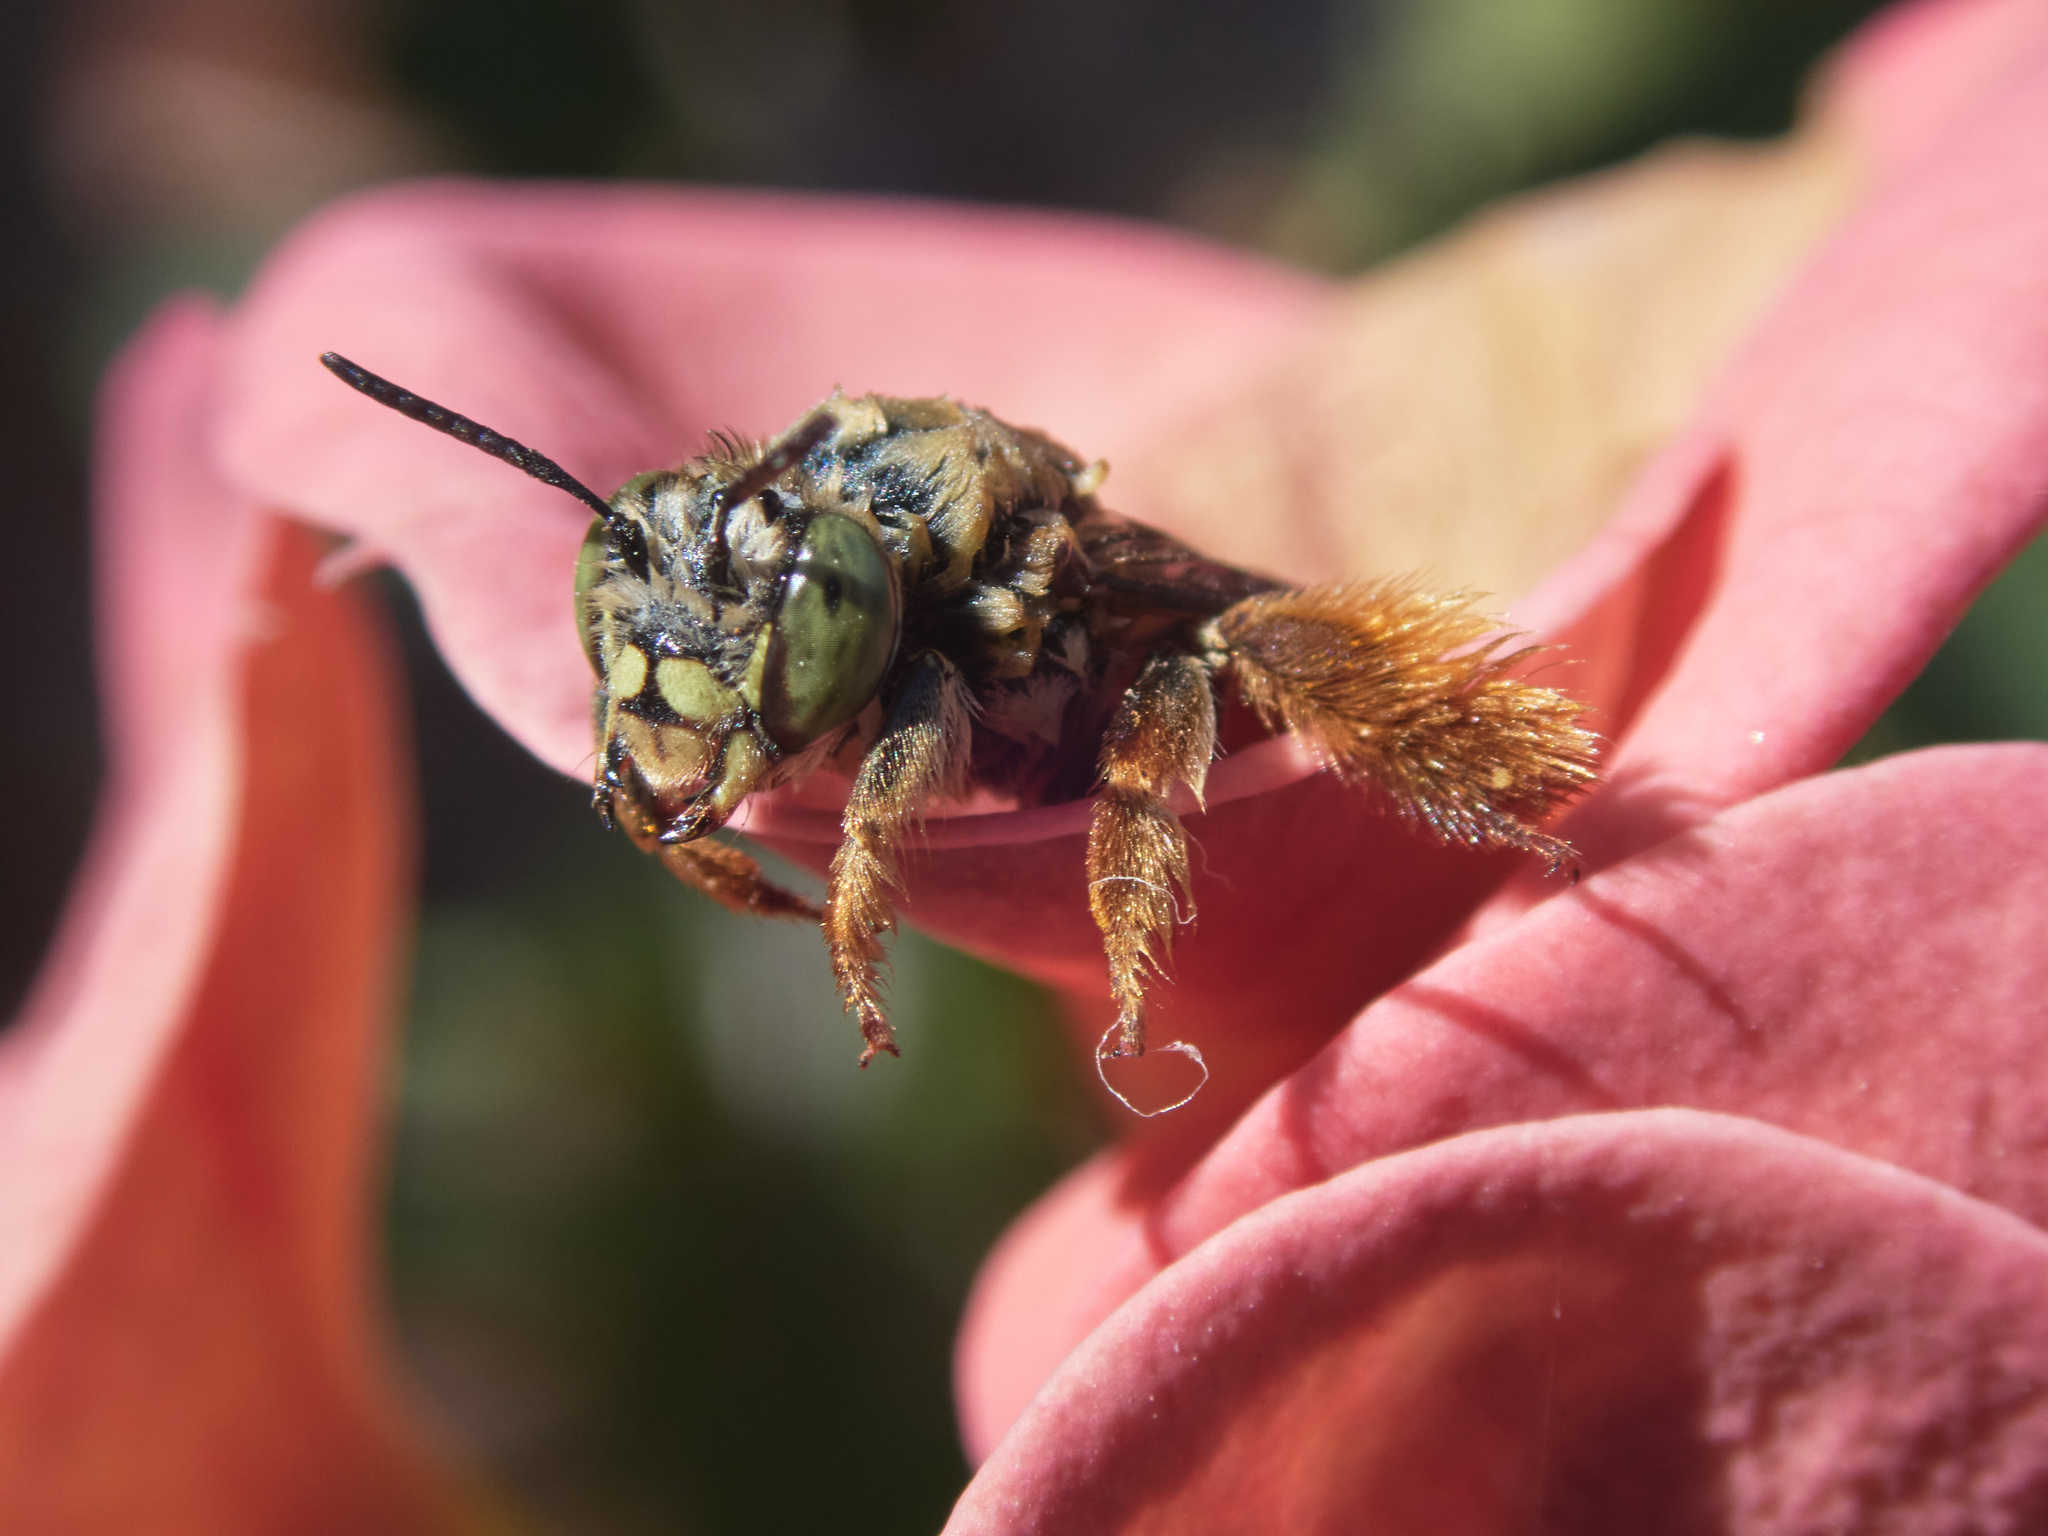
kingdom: Animalia
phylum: Arthropoda
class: Insecta
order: Hymenoptera
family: Apidae
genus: Centris
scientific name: Centris trigonoides
